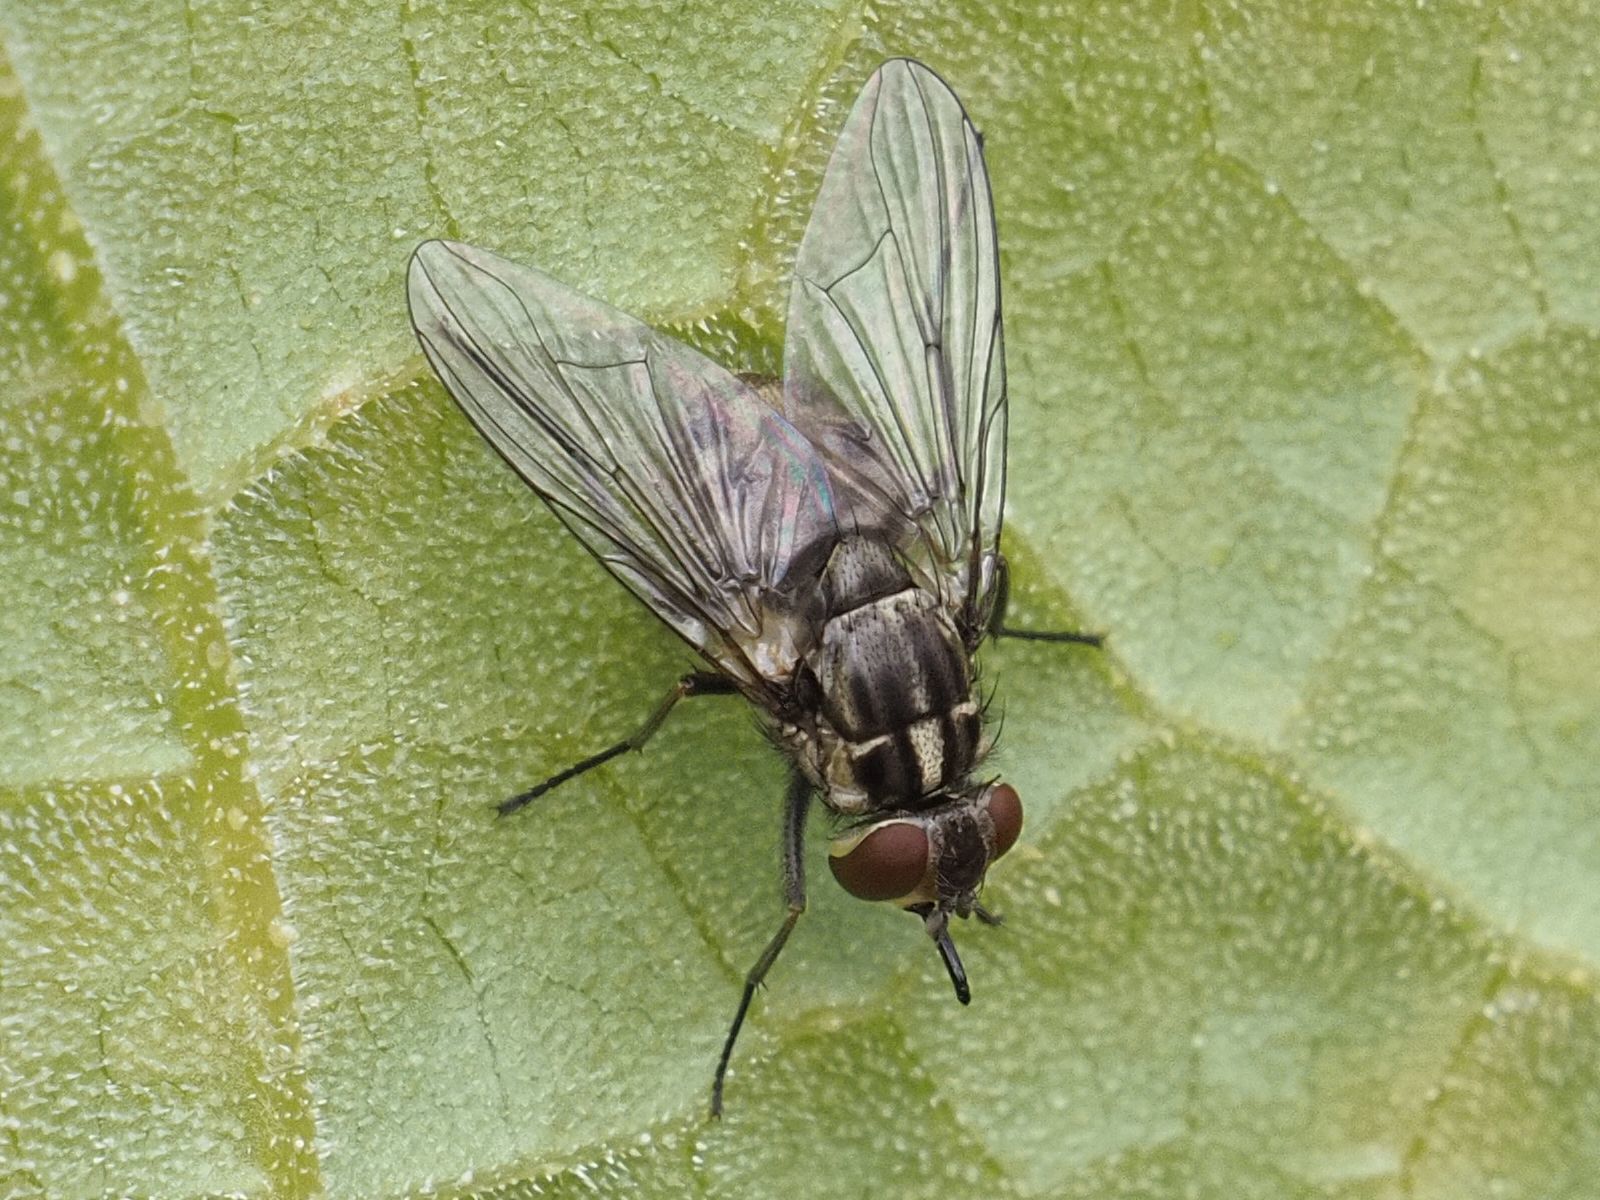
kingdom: Animalia
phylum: Arthropoda
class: Insecta
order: Diptera
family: Muscidae
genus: Stomoxys
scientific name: Stomoxys calcitrans
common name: Stable fly
